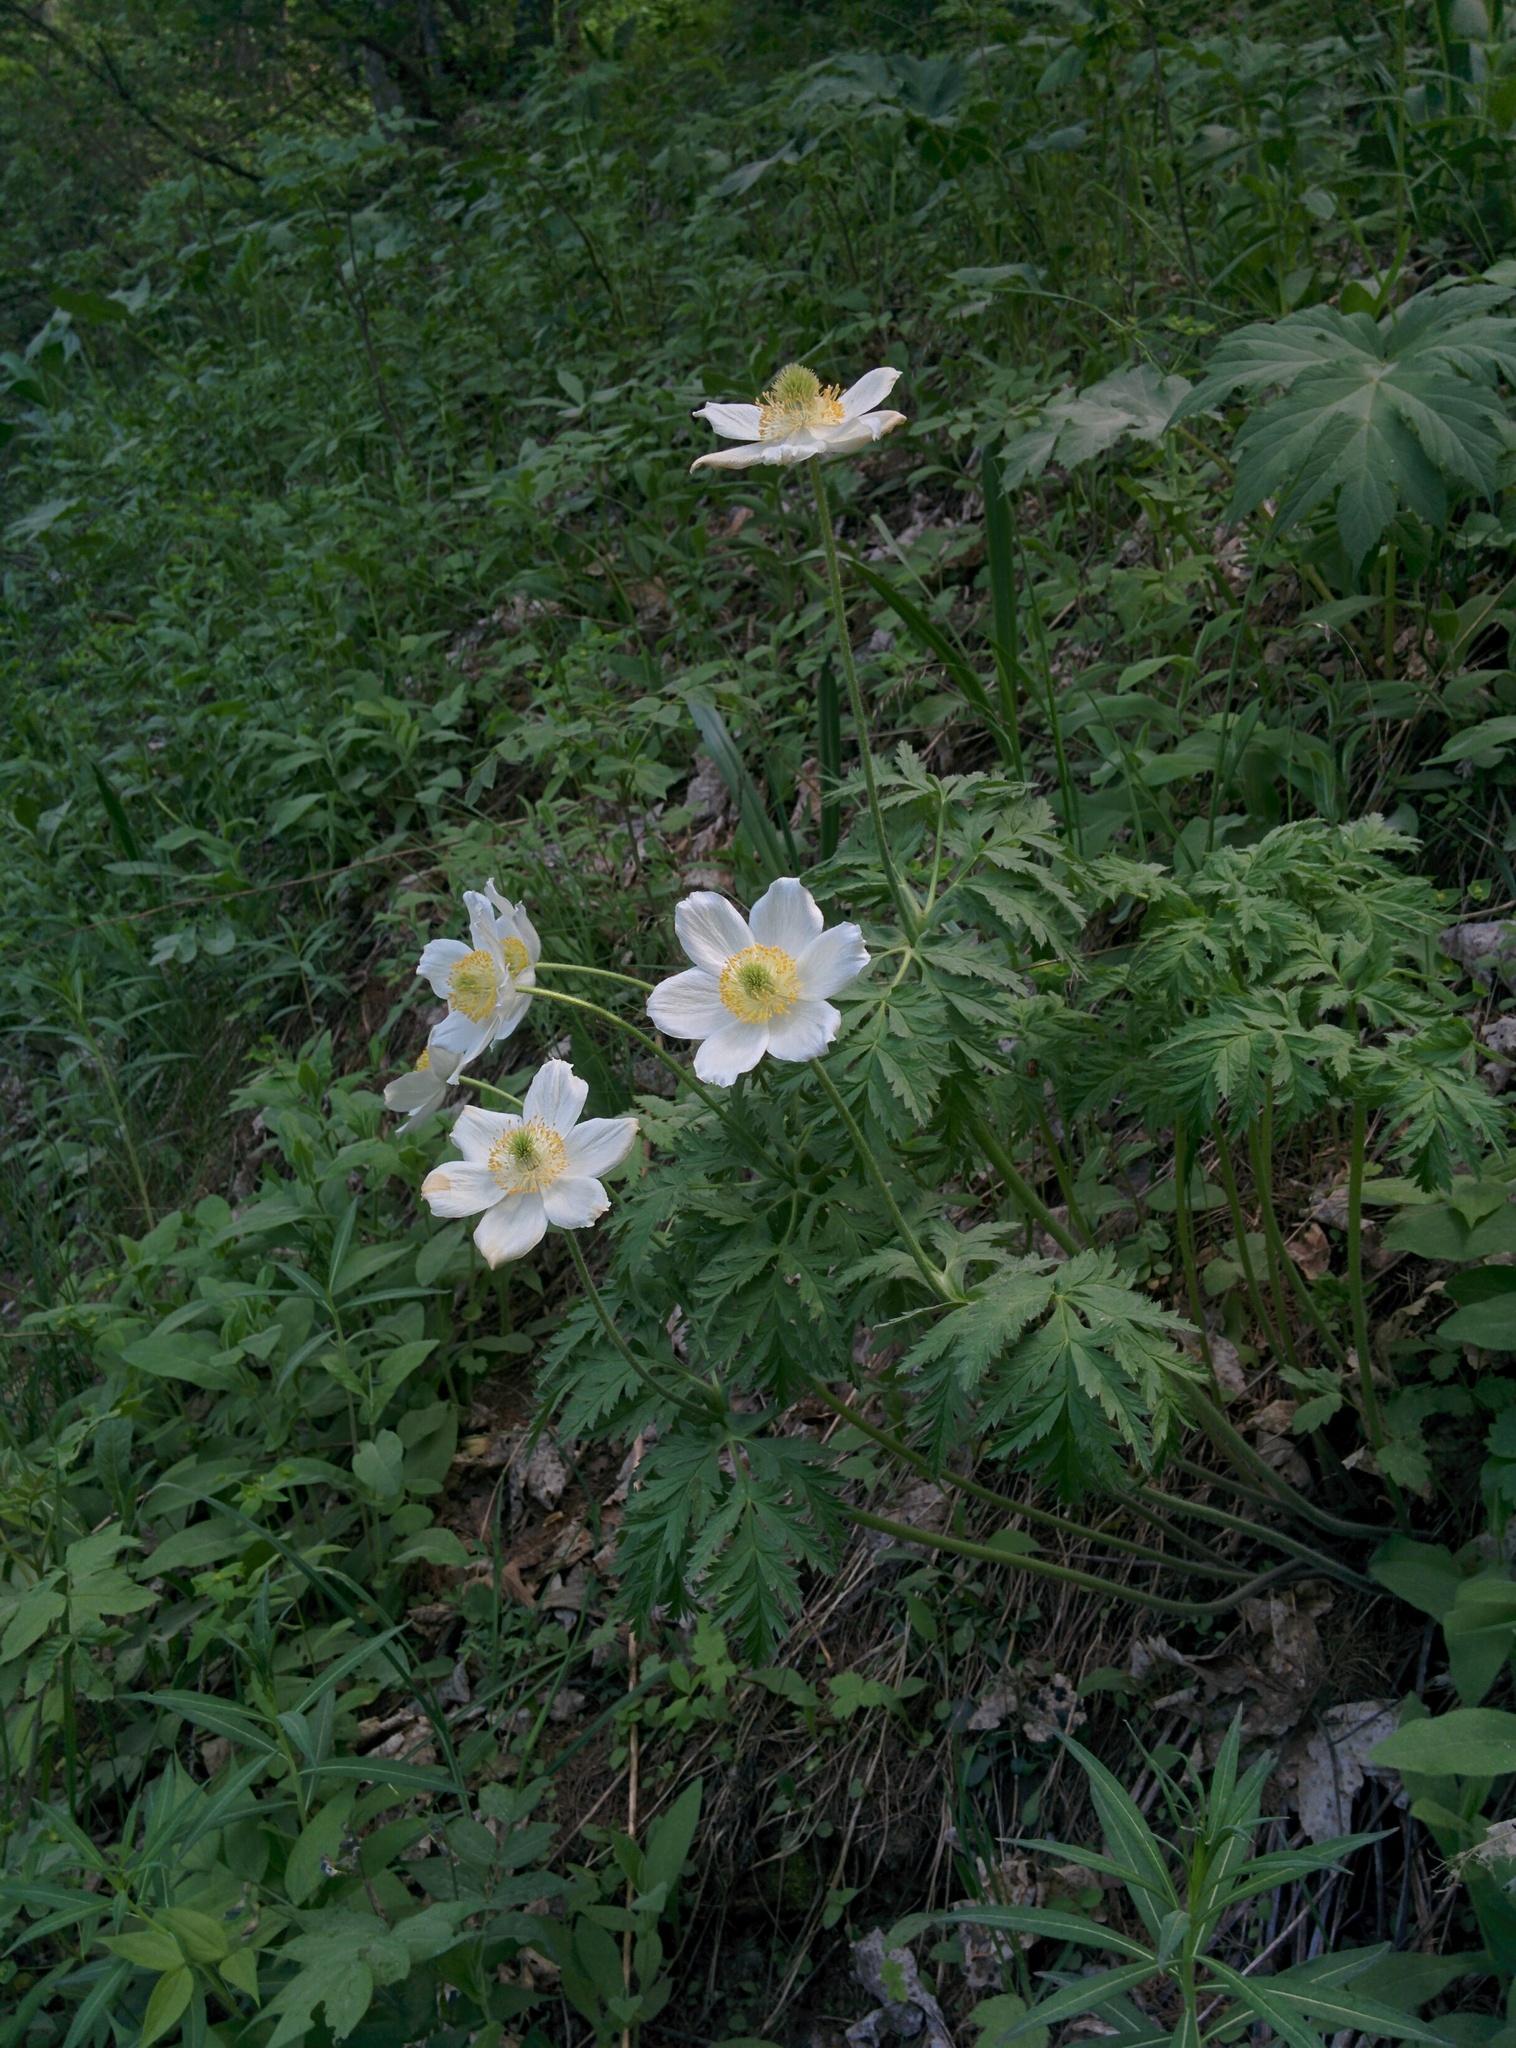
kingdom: Plantae
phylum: Tracheophyta
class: Magnoliopsida
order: Ranunculales
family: Ranunculaceae
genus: Pulsatilla
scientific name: Pulsatilla alpina
